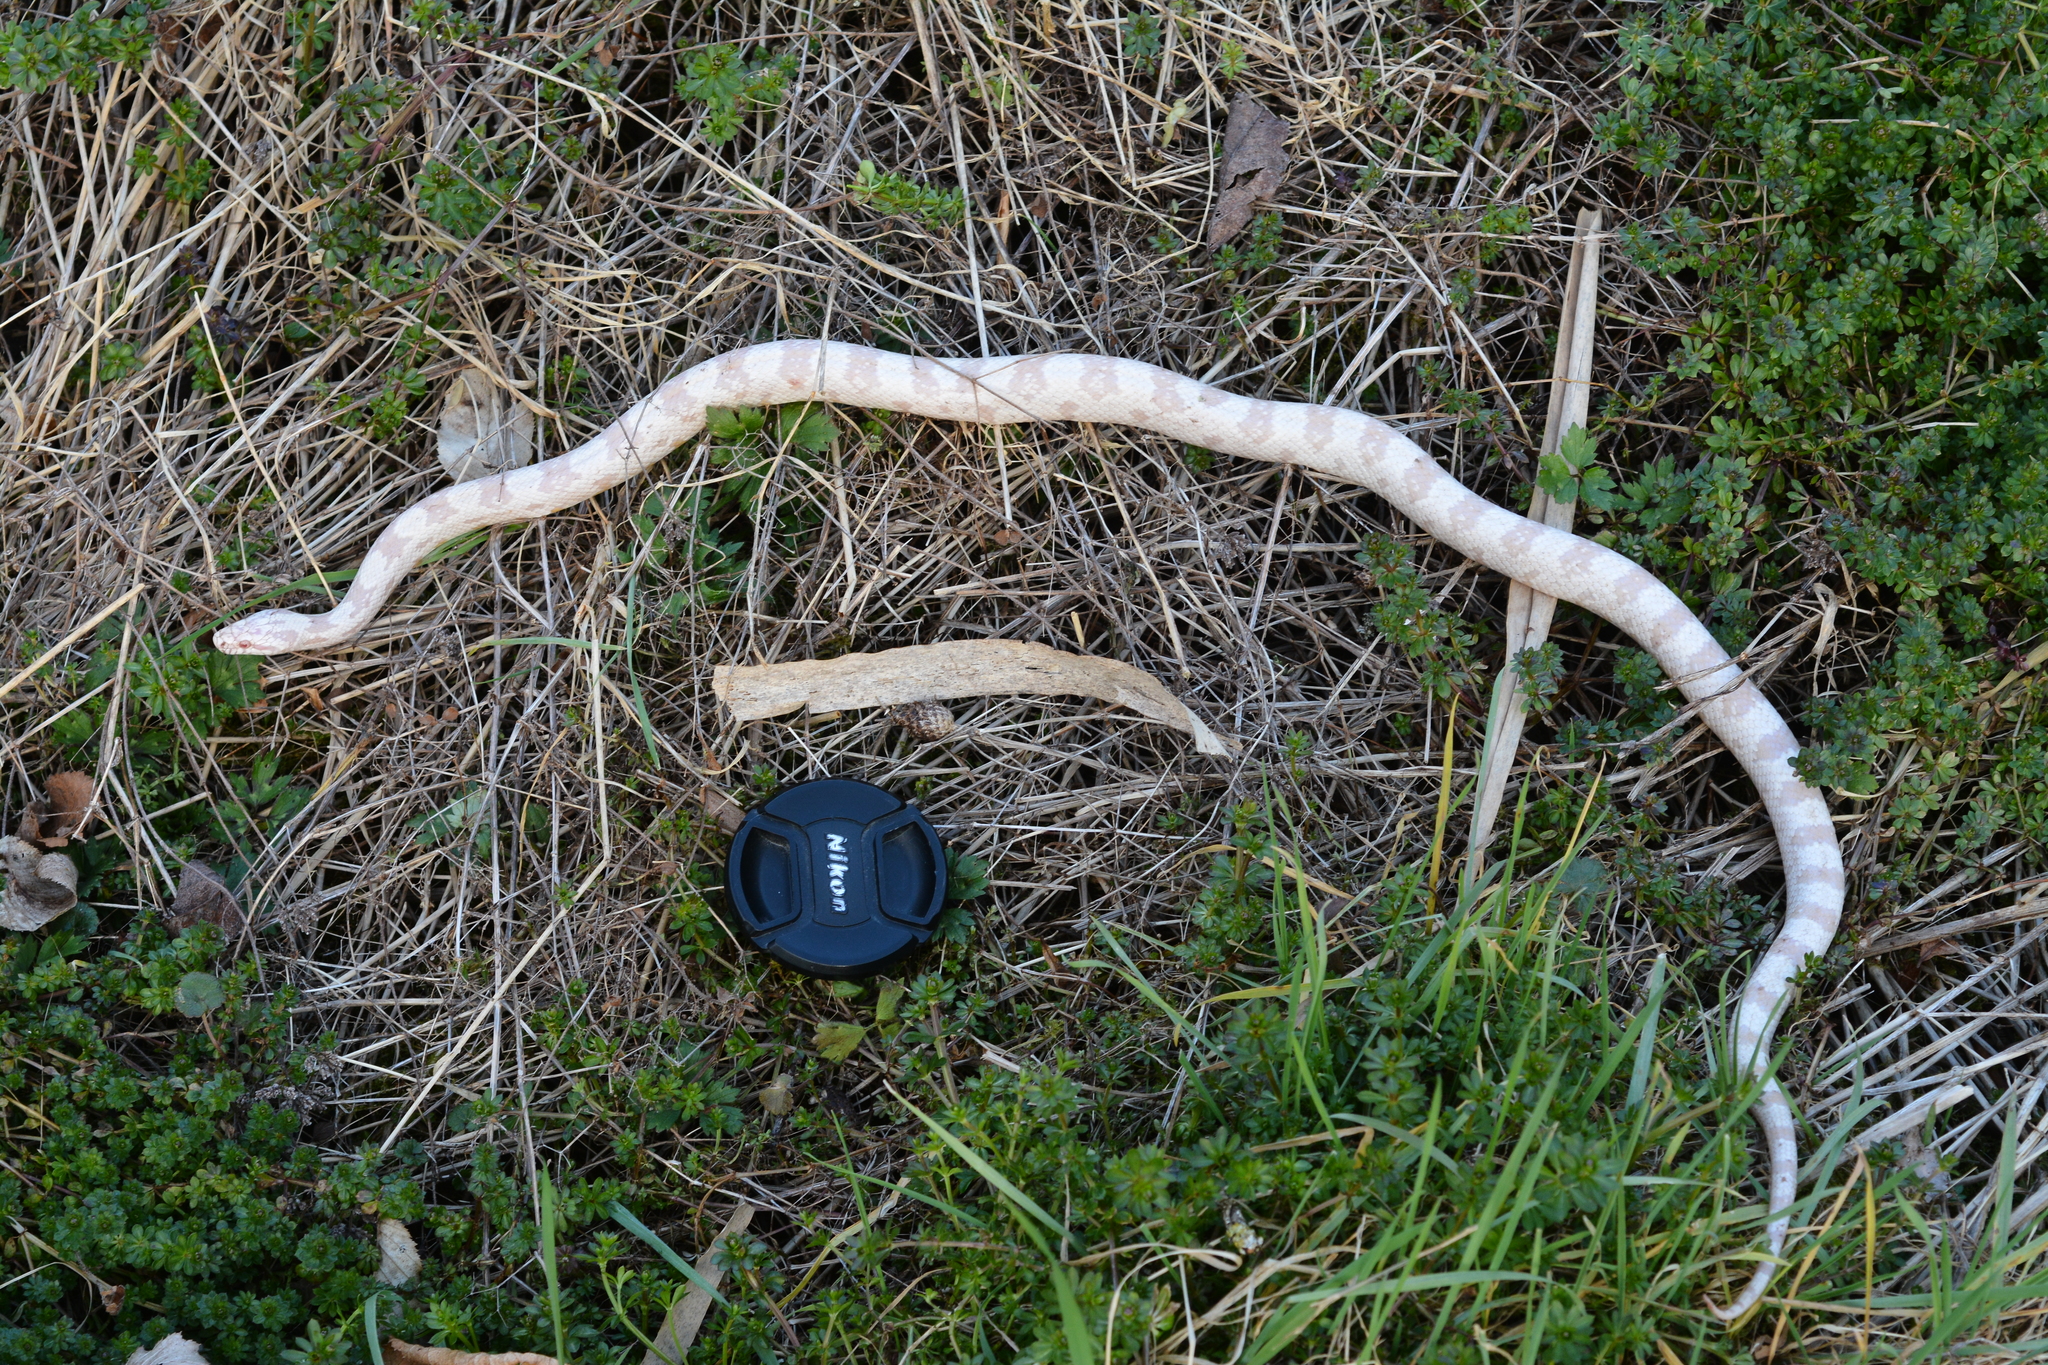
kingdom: Animalia
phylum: Chordata
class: Squamata
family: Colubridae
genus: Pantherophis
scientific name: Pantherophis guttatus
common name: Red cornsnake
